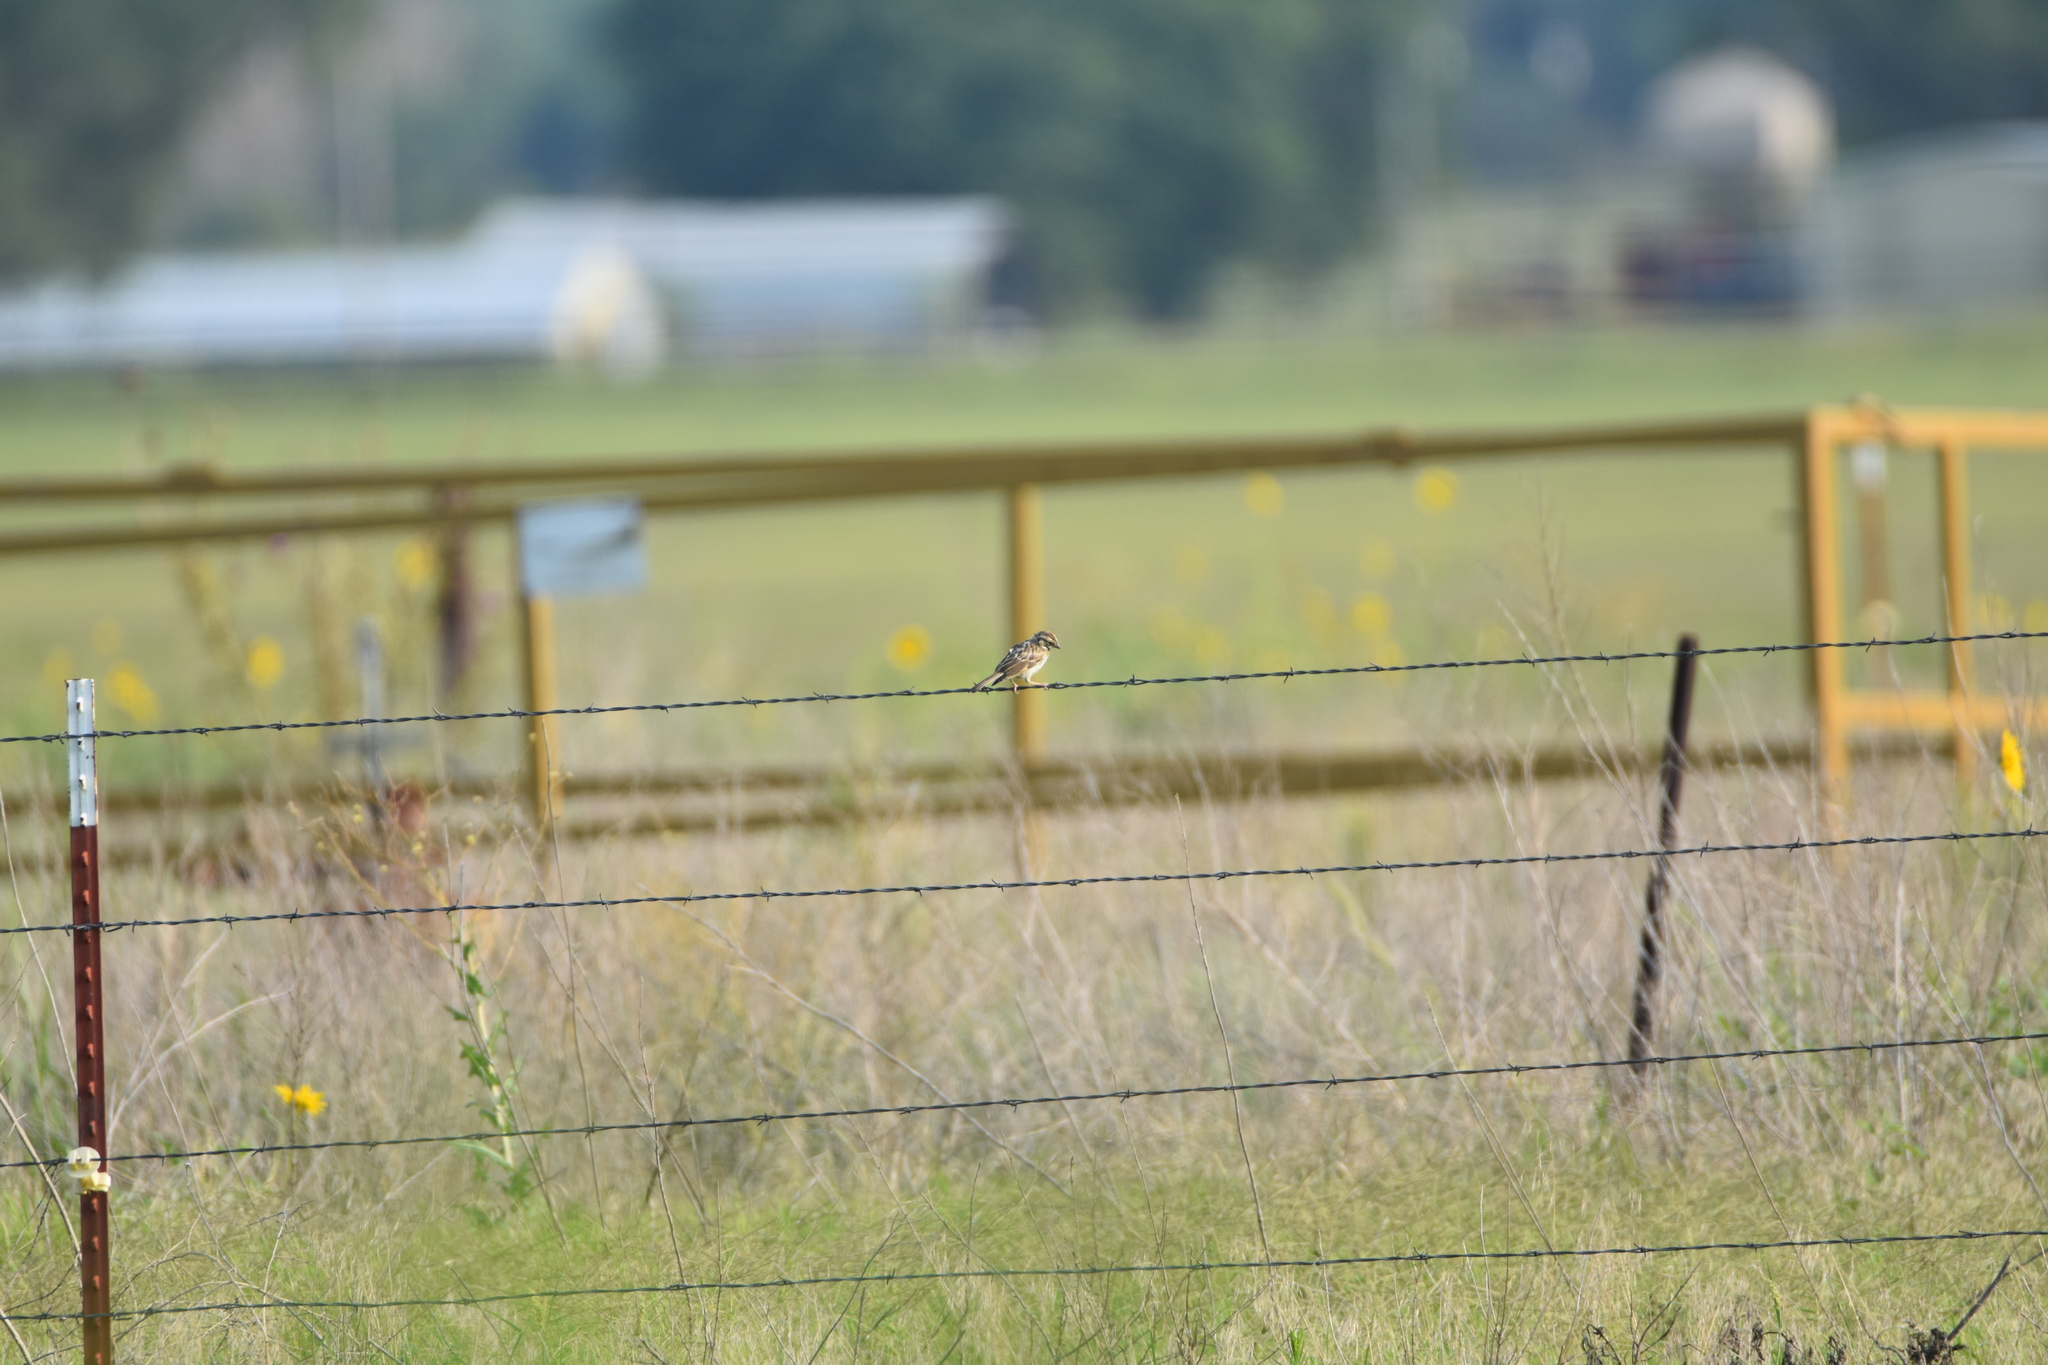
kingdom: Animalia
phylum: Chordata
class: Aves
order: Passeriformes
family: Passerellidae
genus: Chondestes
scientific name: Chondestes grammacus
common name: Lark sparrow
